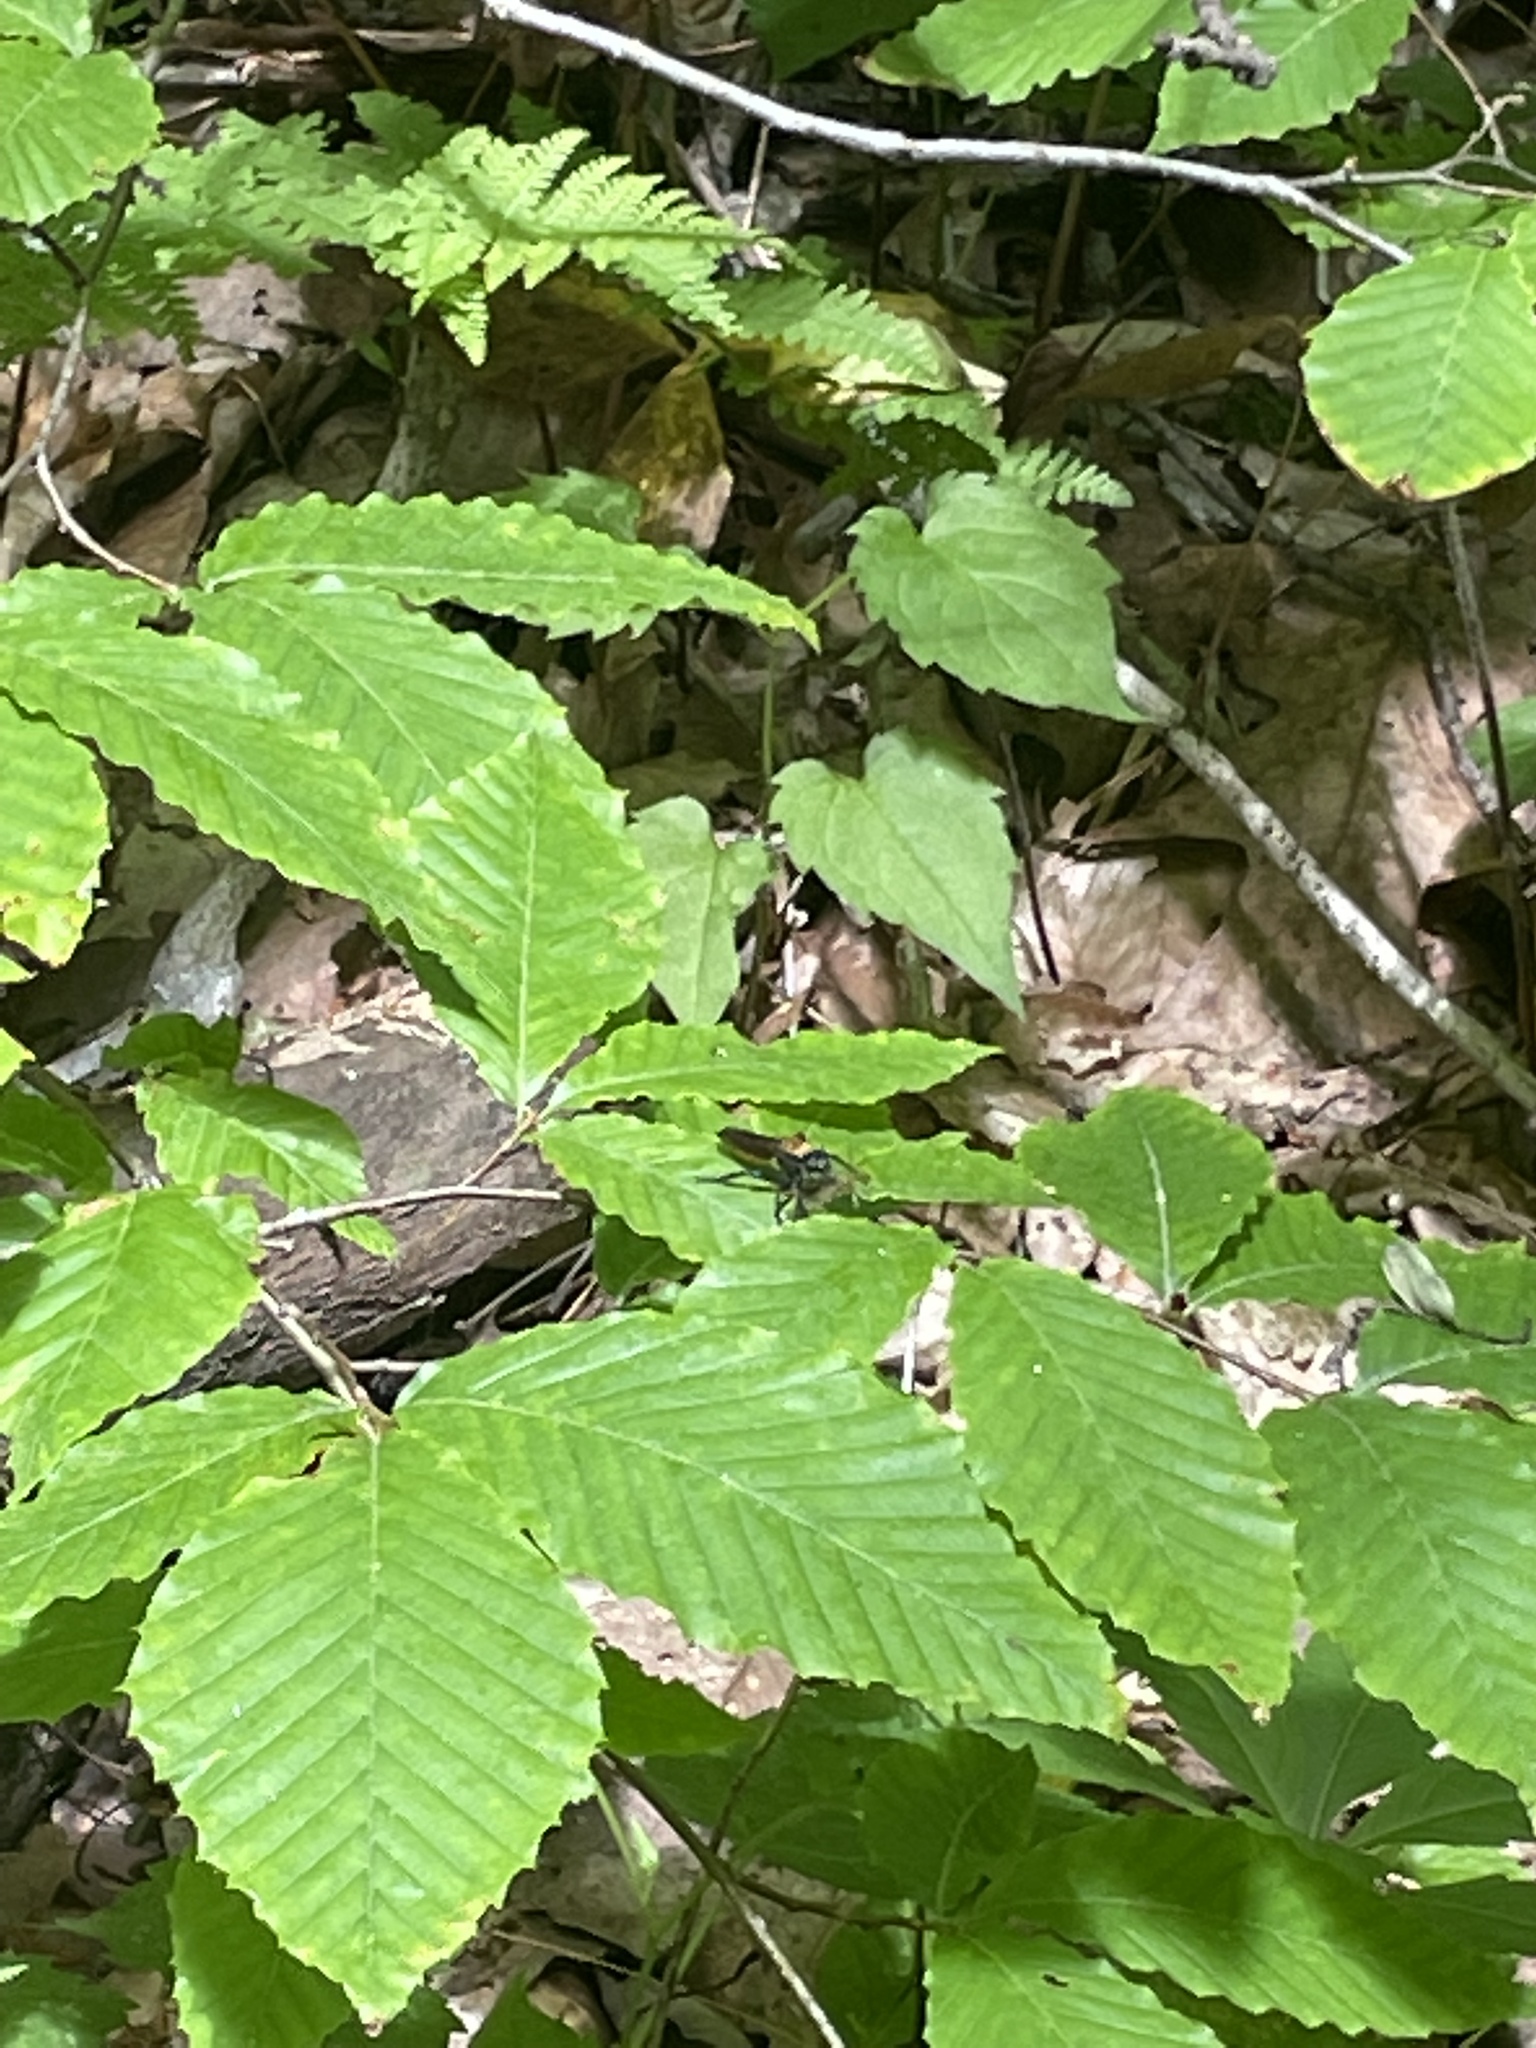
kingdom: Animalia
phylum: Arthropoda
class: Insecta
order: Diptera
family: Asilidae
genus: Laphria
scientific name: Laphria
